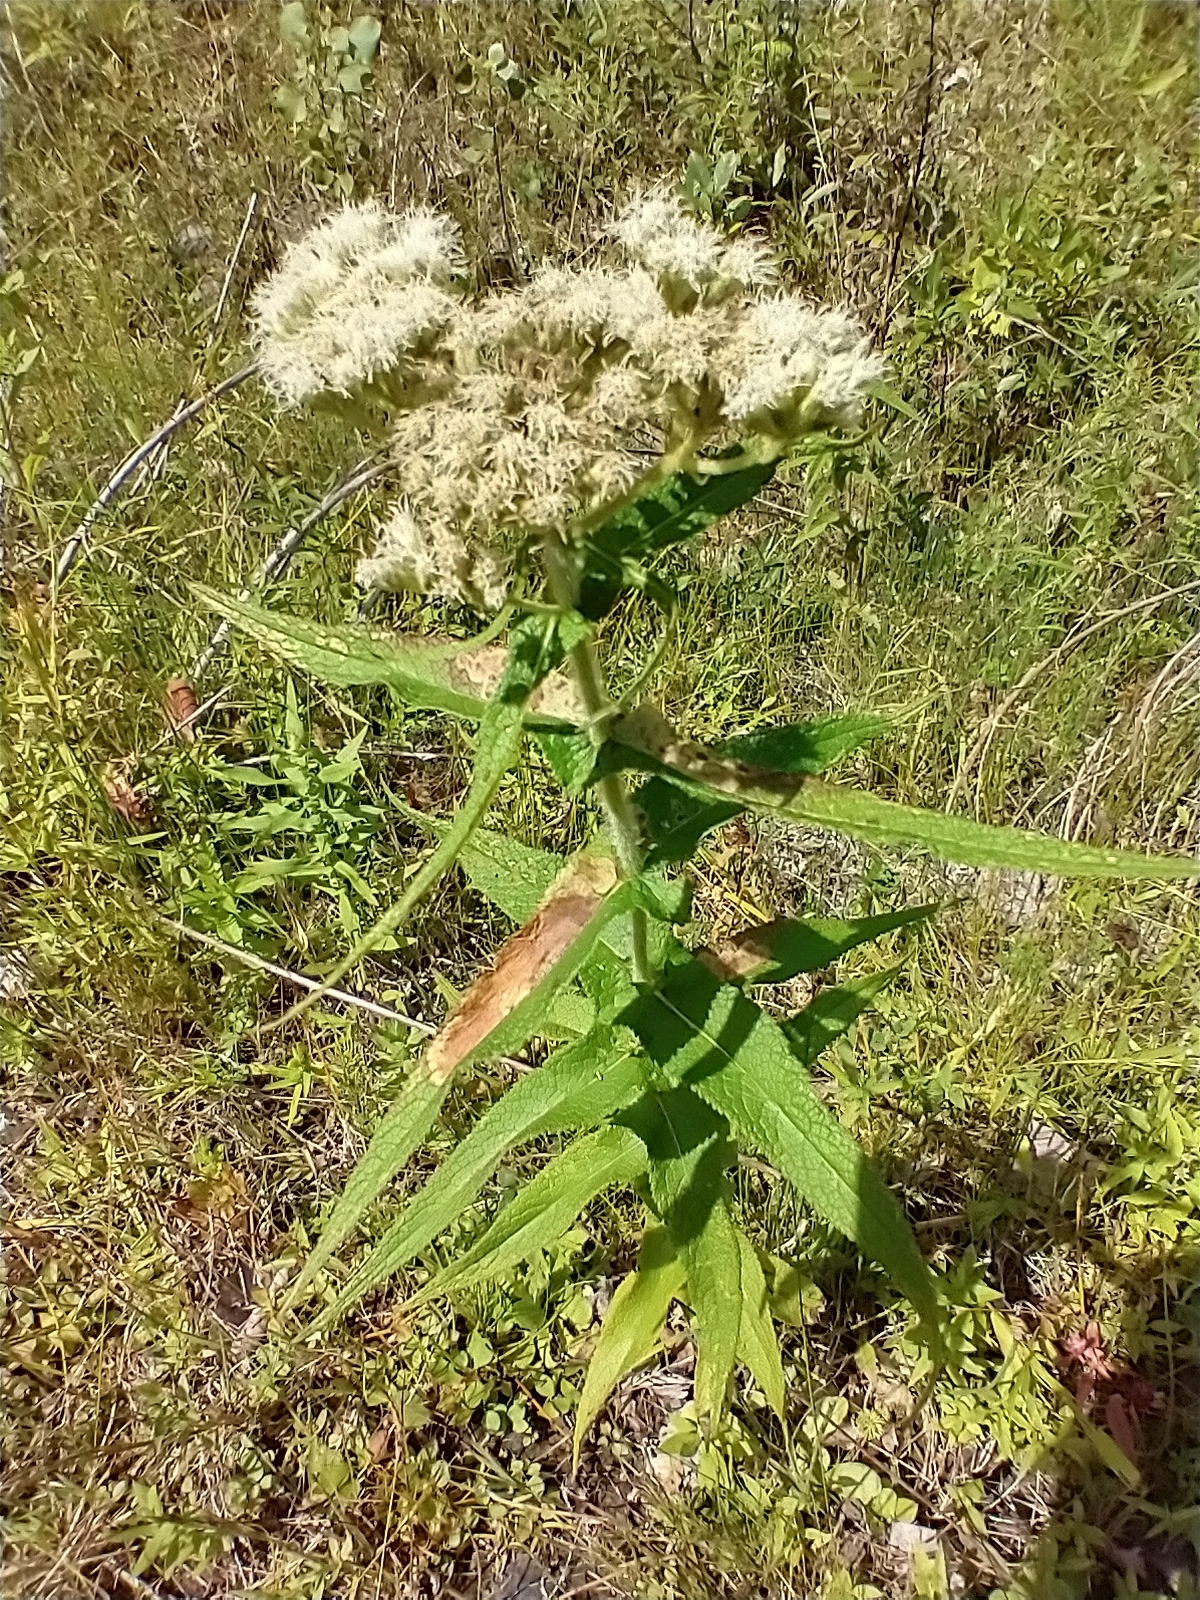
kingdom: Plantae
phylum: Tracheophyta
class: Magnoliopsida
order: Asterales
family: Asteraceae
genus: Eupatorium
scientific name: Eupatorium perfoliatum
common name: Boneset
